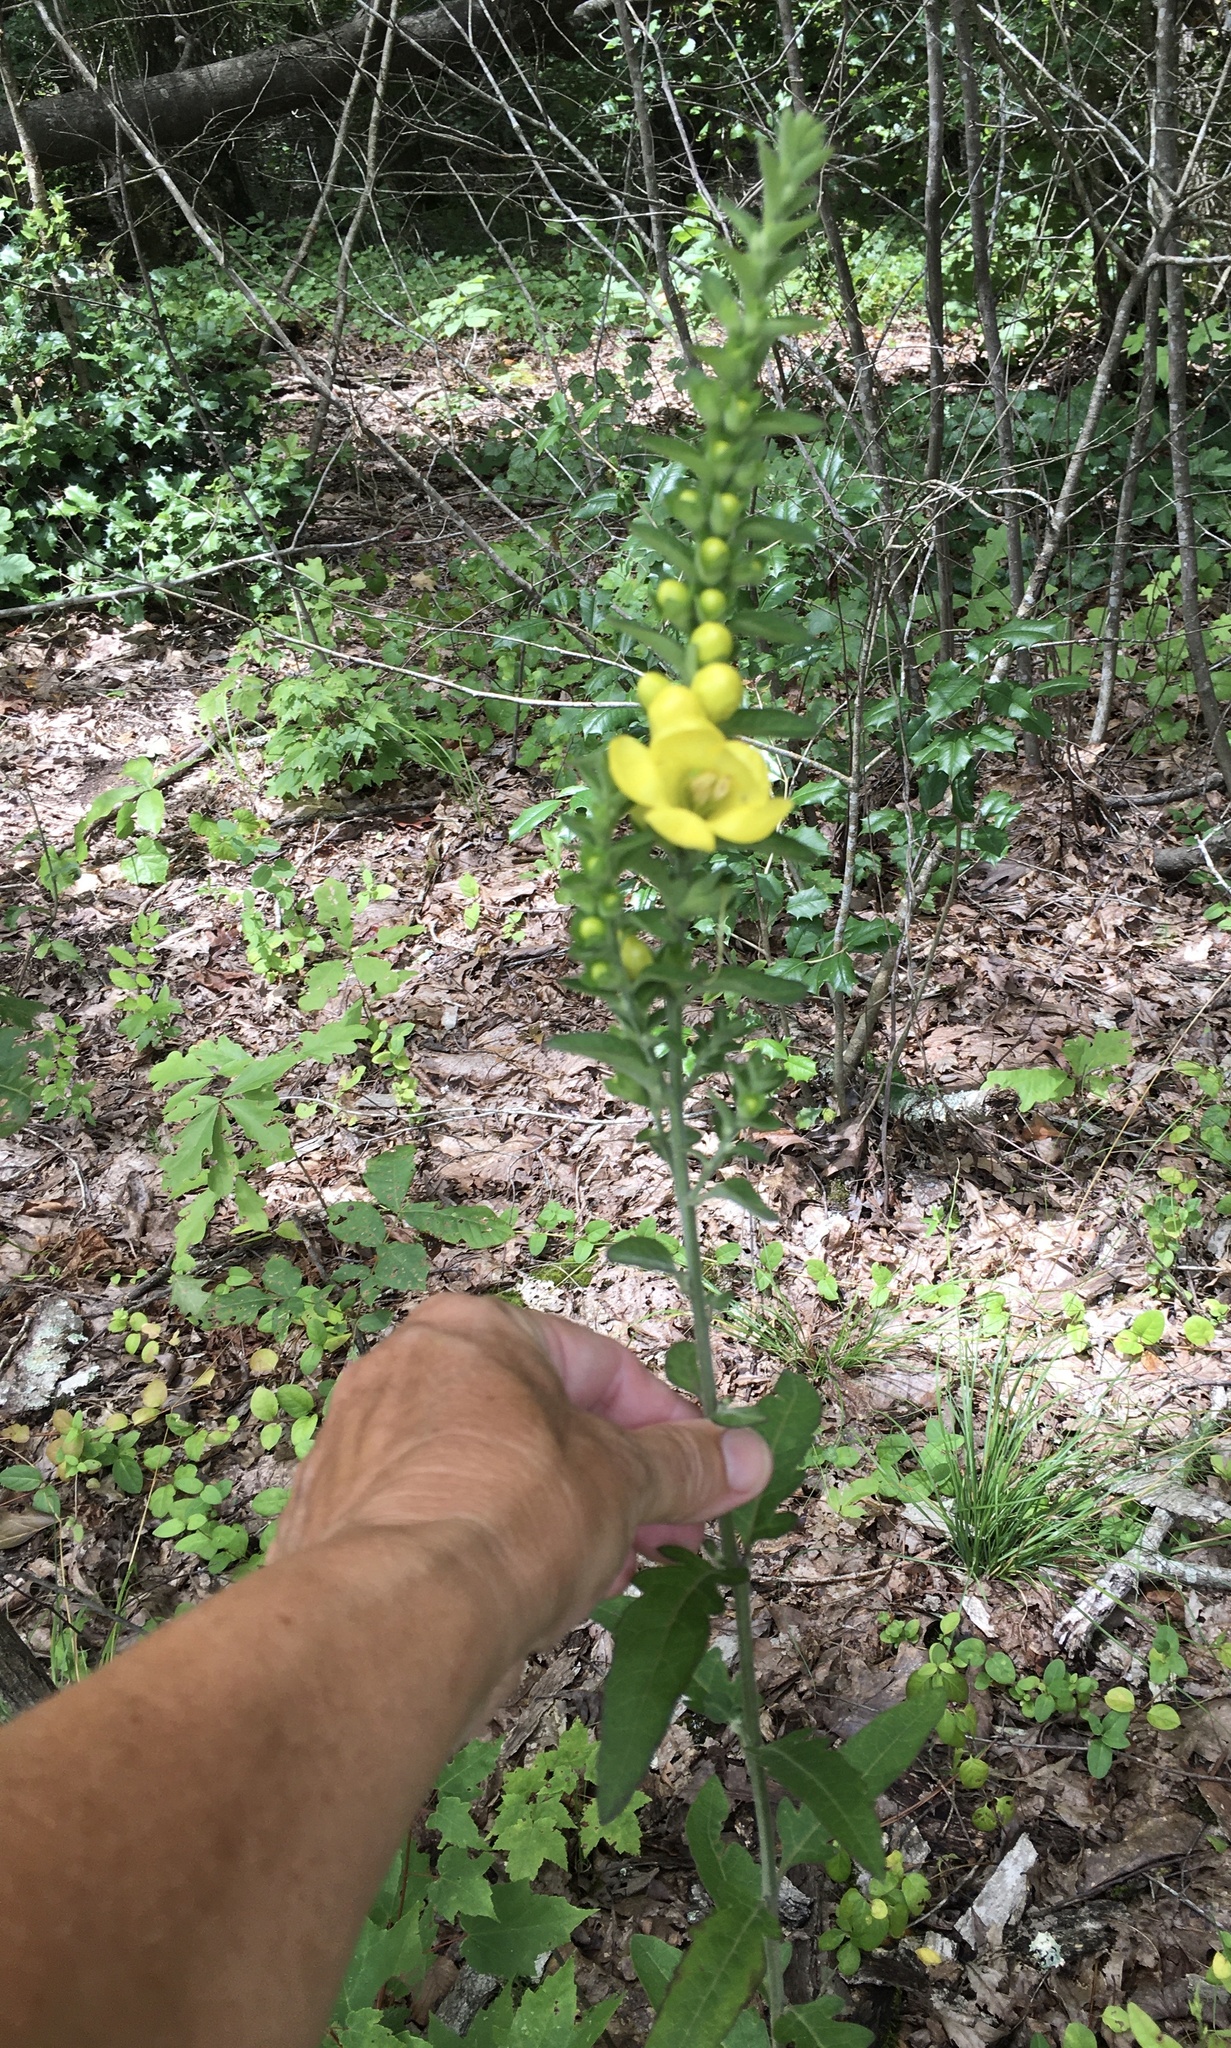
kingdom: Plantae
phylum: Tracheophyta
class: Magnoliopsida
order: Lamiales
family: Orobanchaceae
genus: Aureolaria
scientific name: Aureolaria virginica
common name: Downy false foxglove
